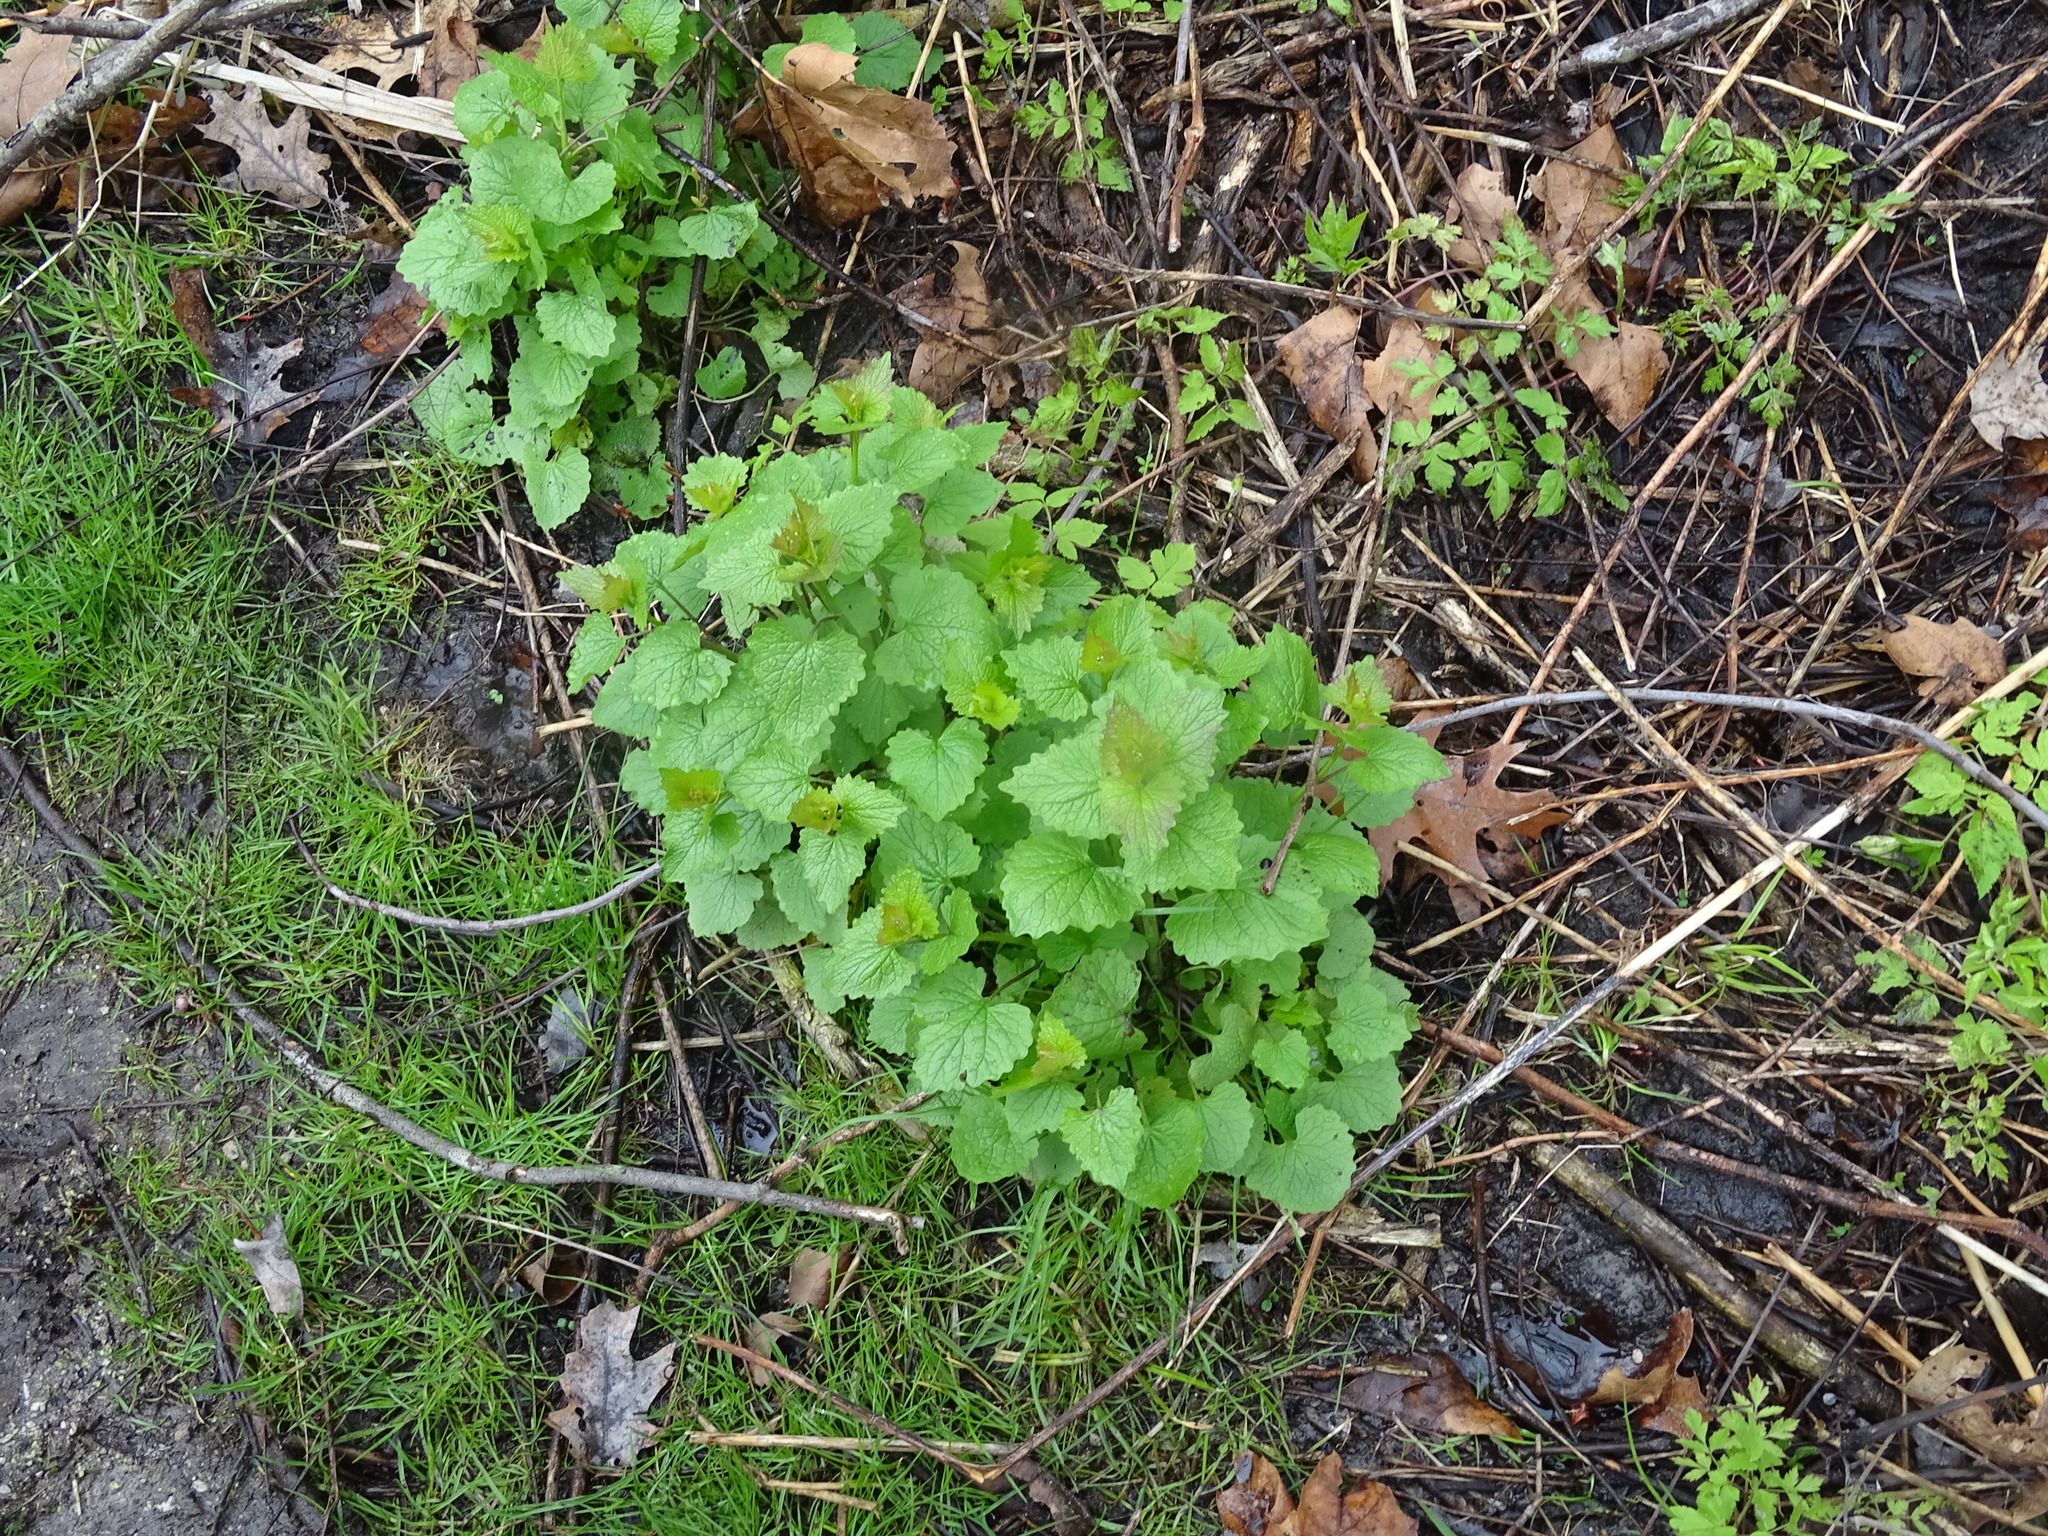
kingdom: Plantae
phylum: Tracheophyta
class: Magnoliopsida
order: Brassicales
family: Brassicaceae
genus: Alliaria
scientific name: Alliaria petiolata
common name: Garlic mustard
